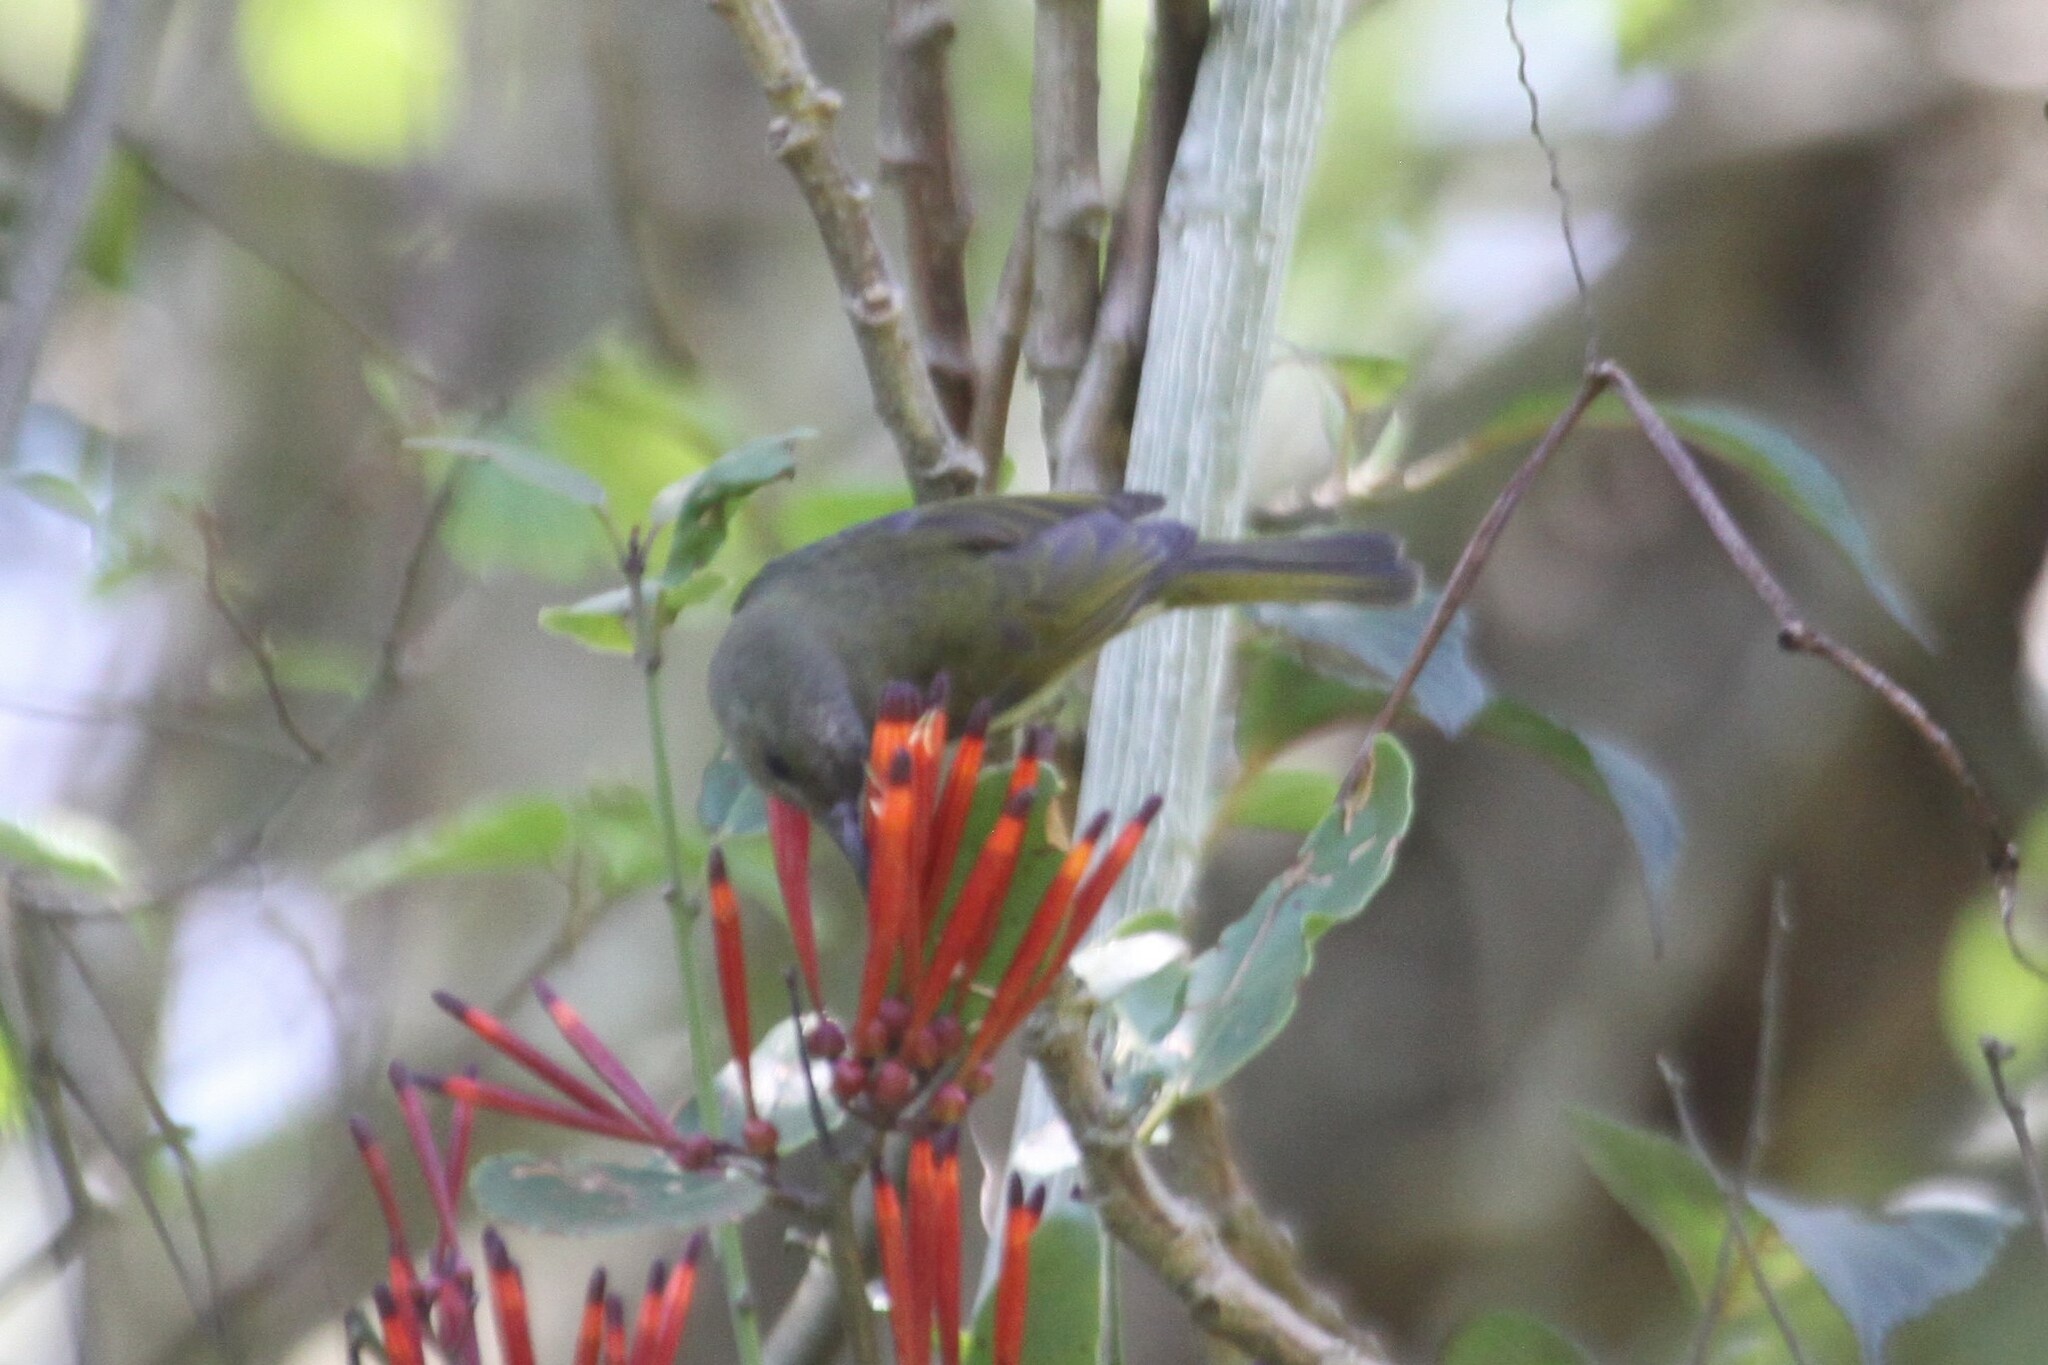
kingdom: Animalia
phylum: Chordata
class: Aves
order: Passeriformes
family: Nectariniidae
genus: Cyanomitra
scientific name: Cyanomitra olivacea
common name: Olive sunbird
